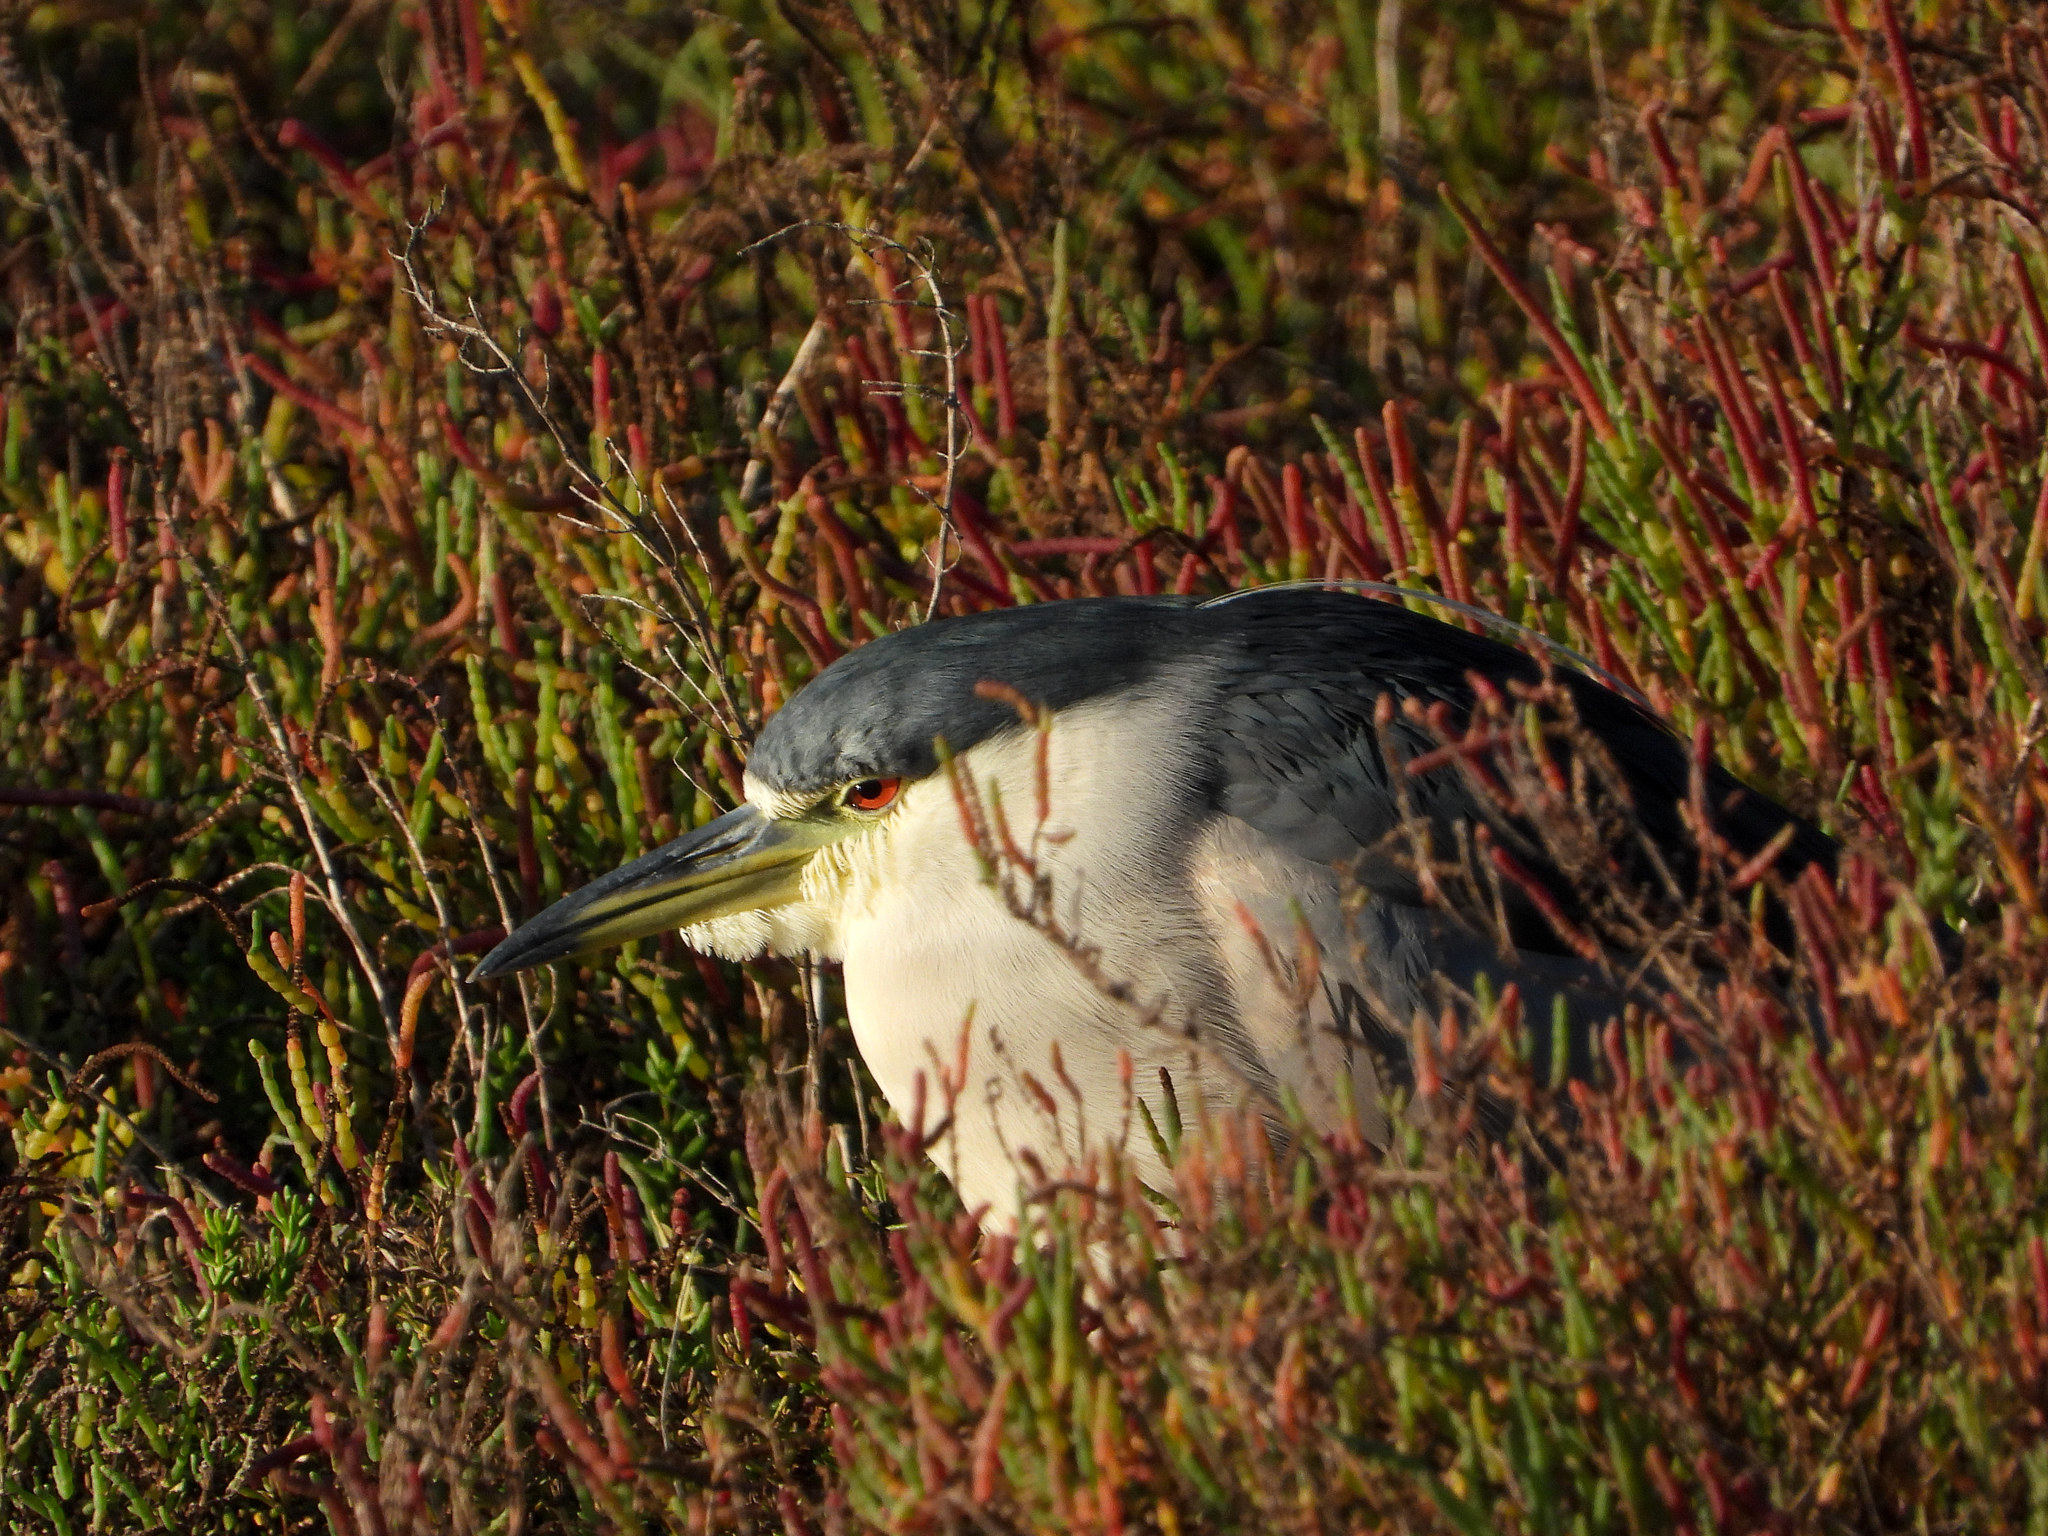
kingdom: Animalia
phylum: Chordata
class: Aves
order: Pelecaniformes
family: Ardeidae
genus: Nycticorax
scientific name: Nycticorax nycticorax
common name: Black-crowned night heron
